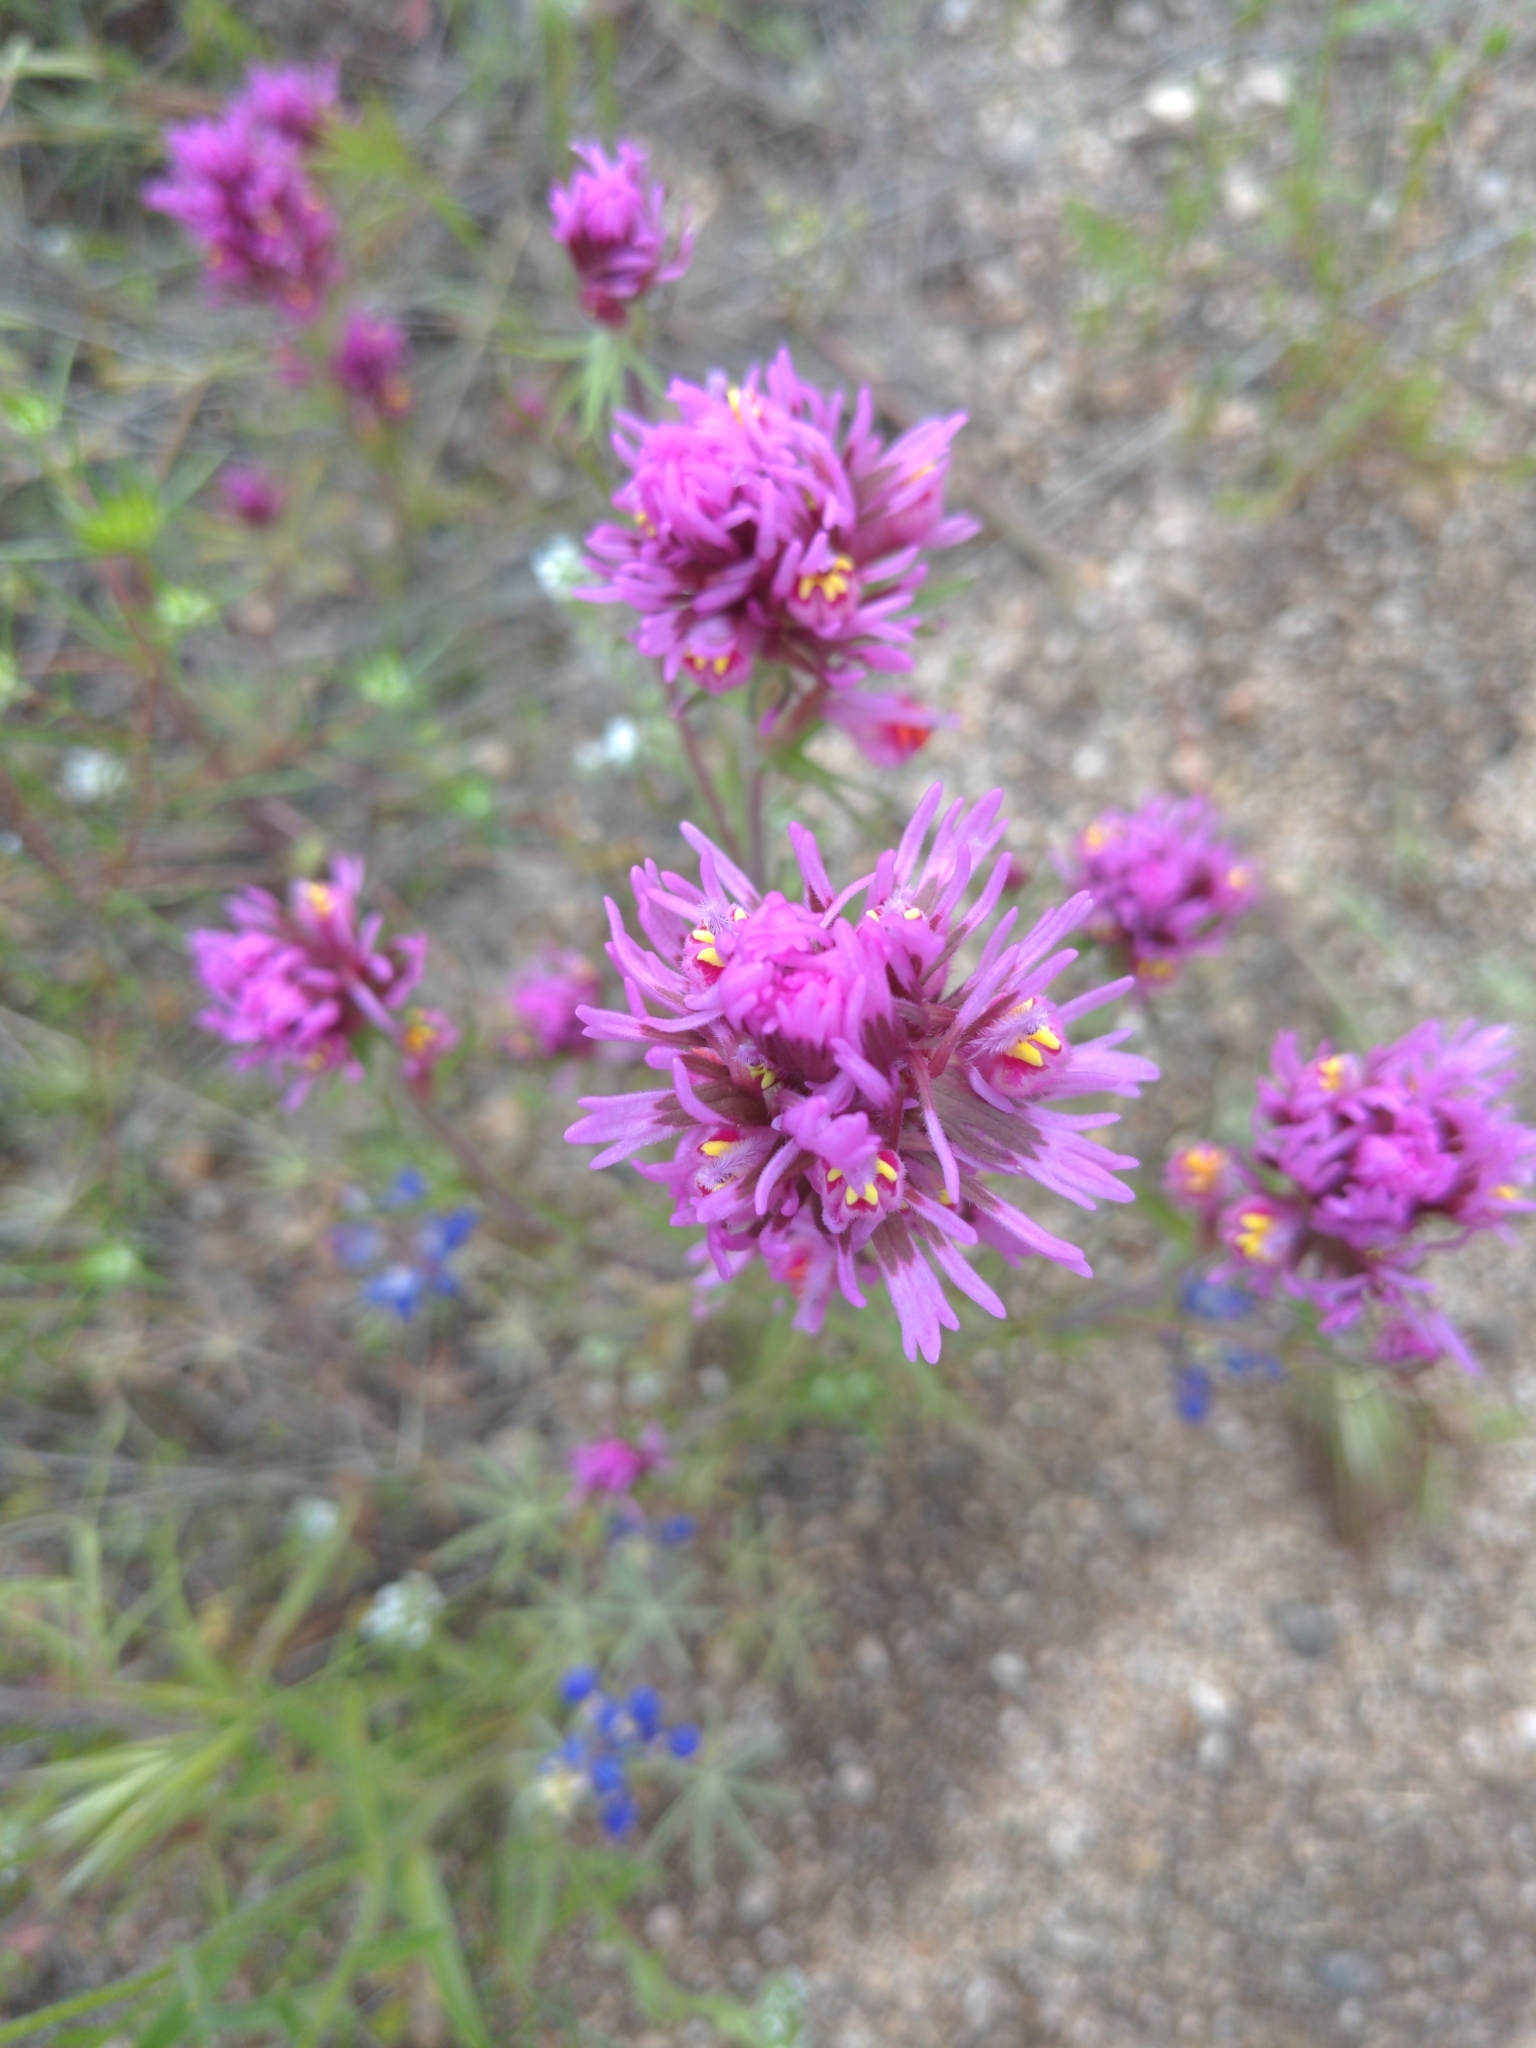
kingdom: Plantae
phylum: Tracheophyta
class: Magnoliopsida
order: Lamiales
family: Orobanchaceae
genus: Castilleja
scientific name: Castilleja exserta
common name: Purple owl-clover
